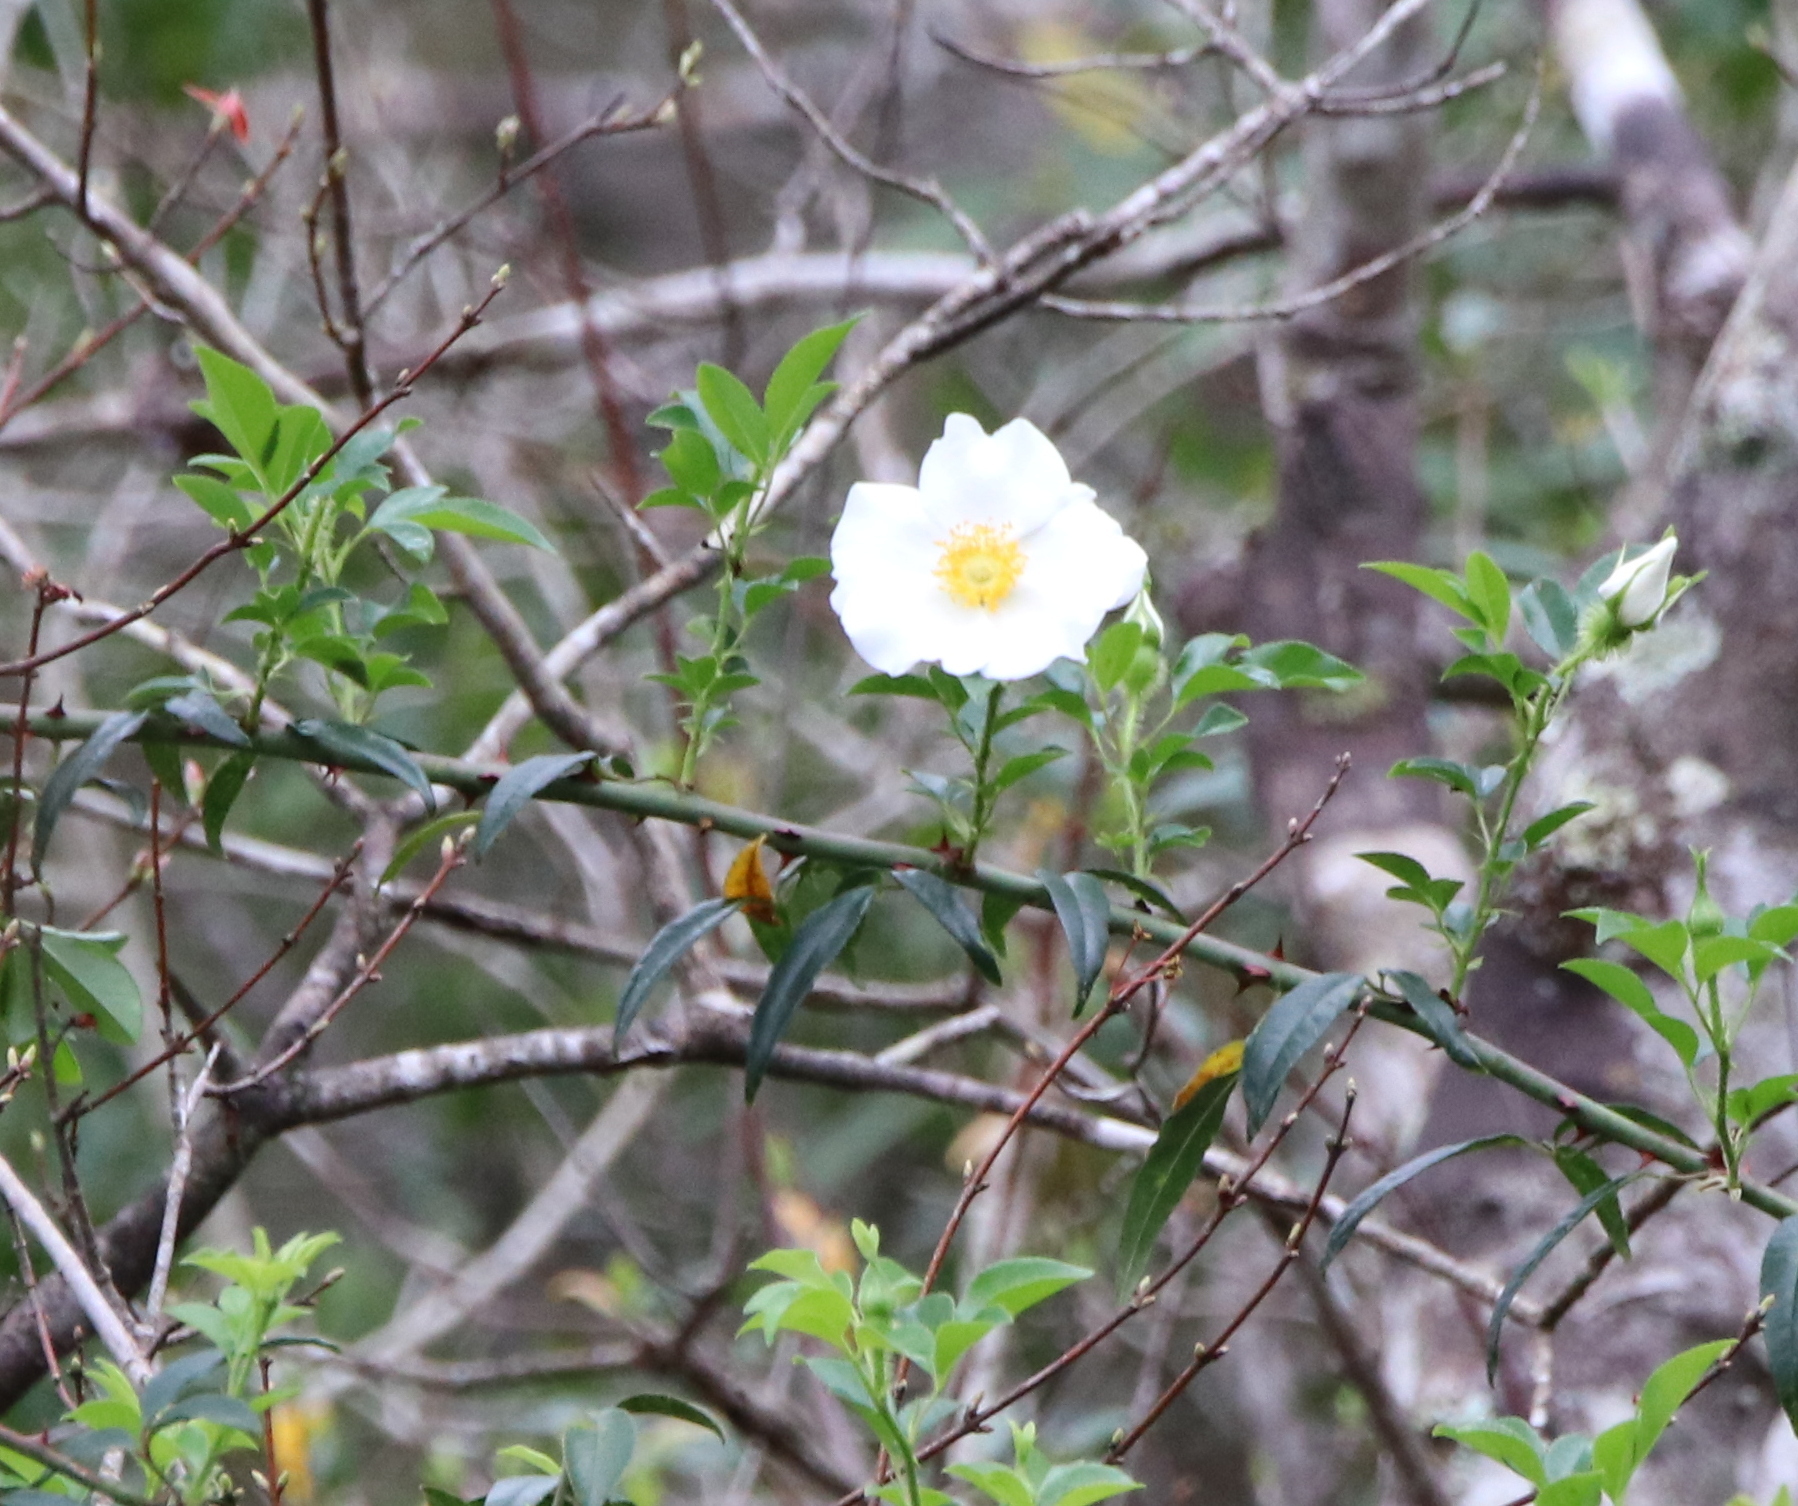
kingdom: Plantae
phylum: Tracheophyta
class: Magnoliopsida
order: Rosales
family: Rosaceae
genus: Rosa
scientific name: Rosa laevigata
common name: Cherokee rose
